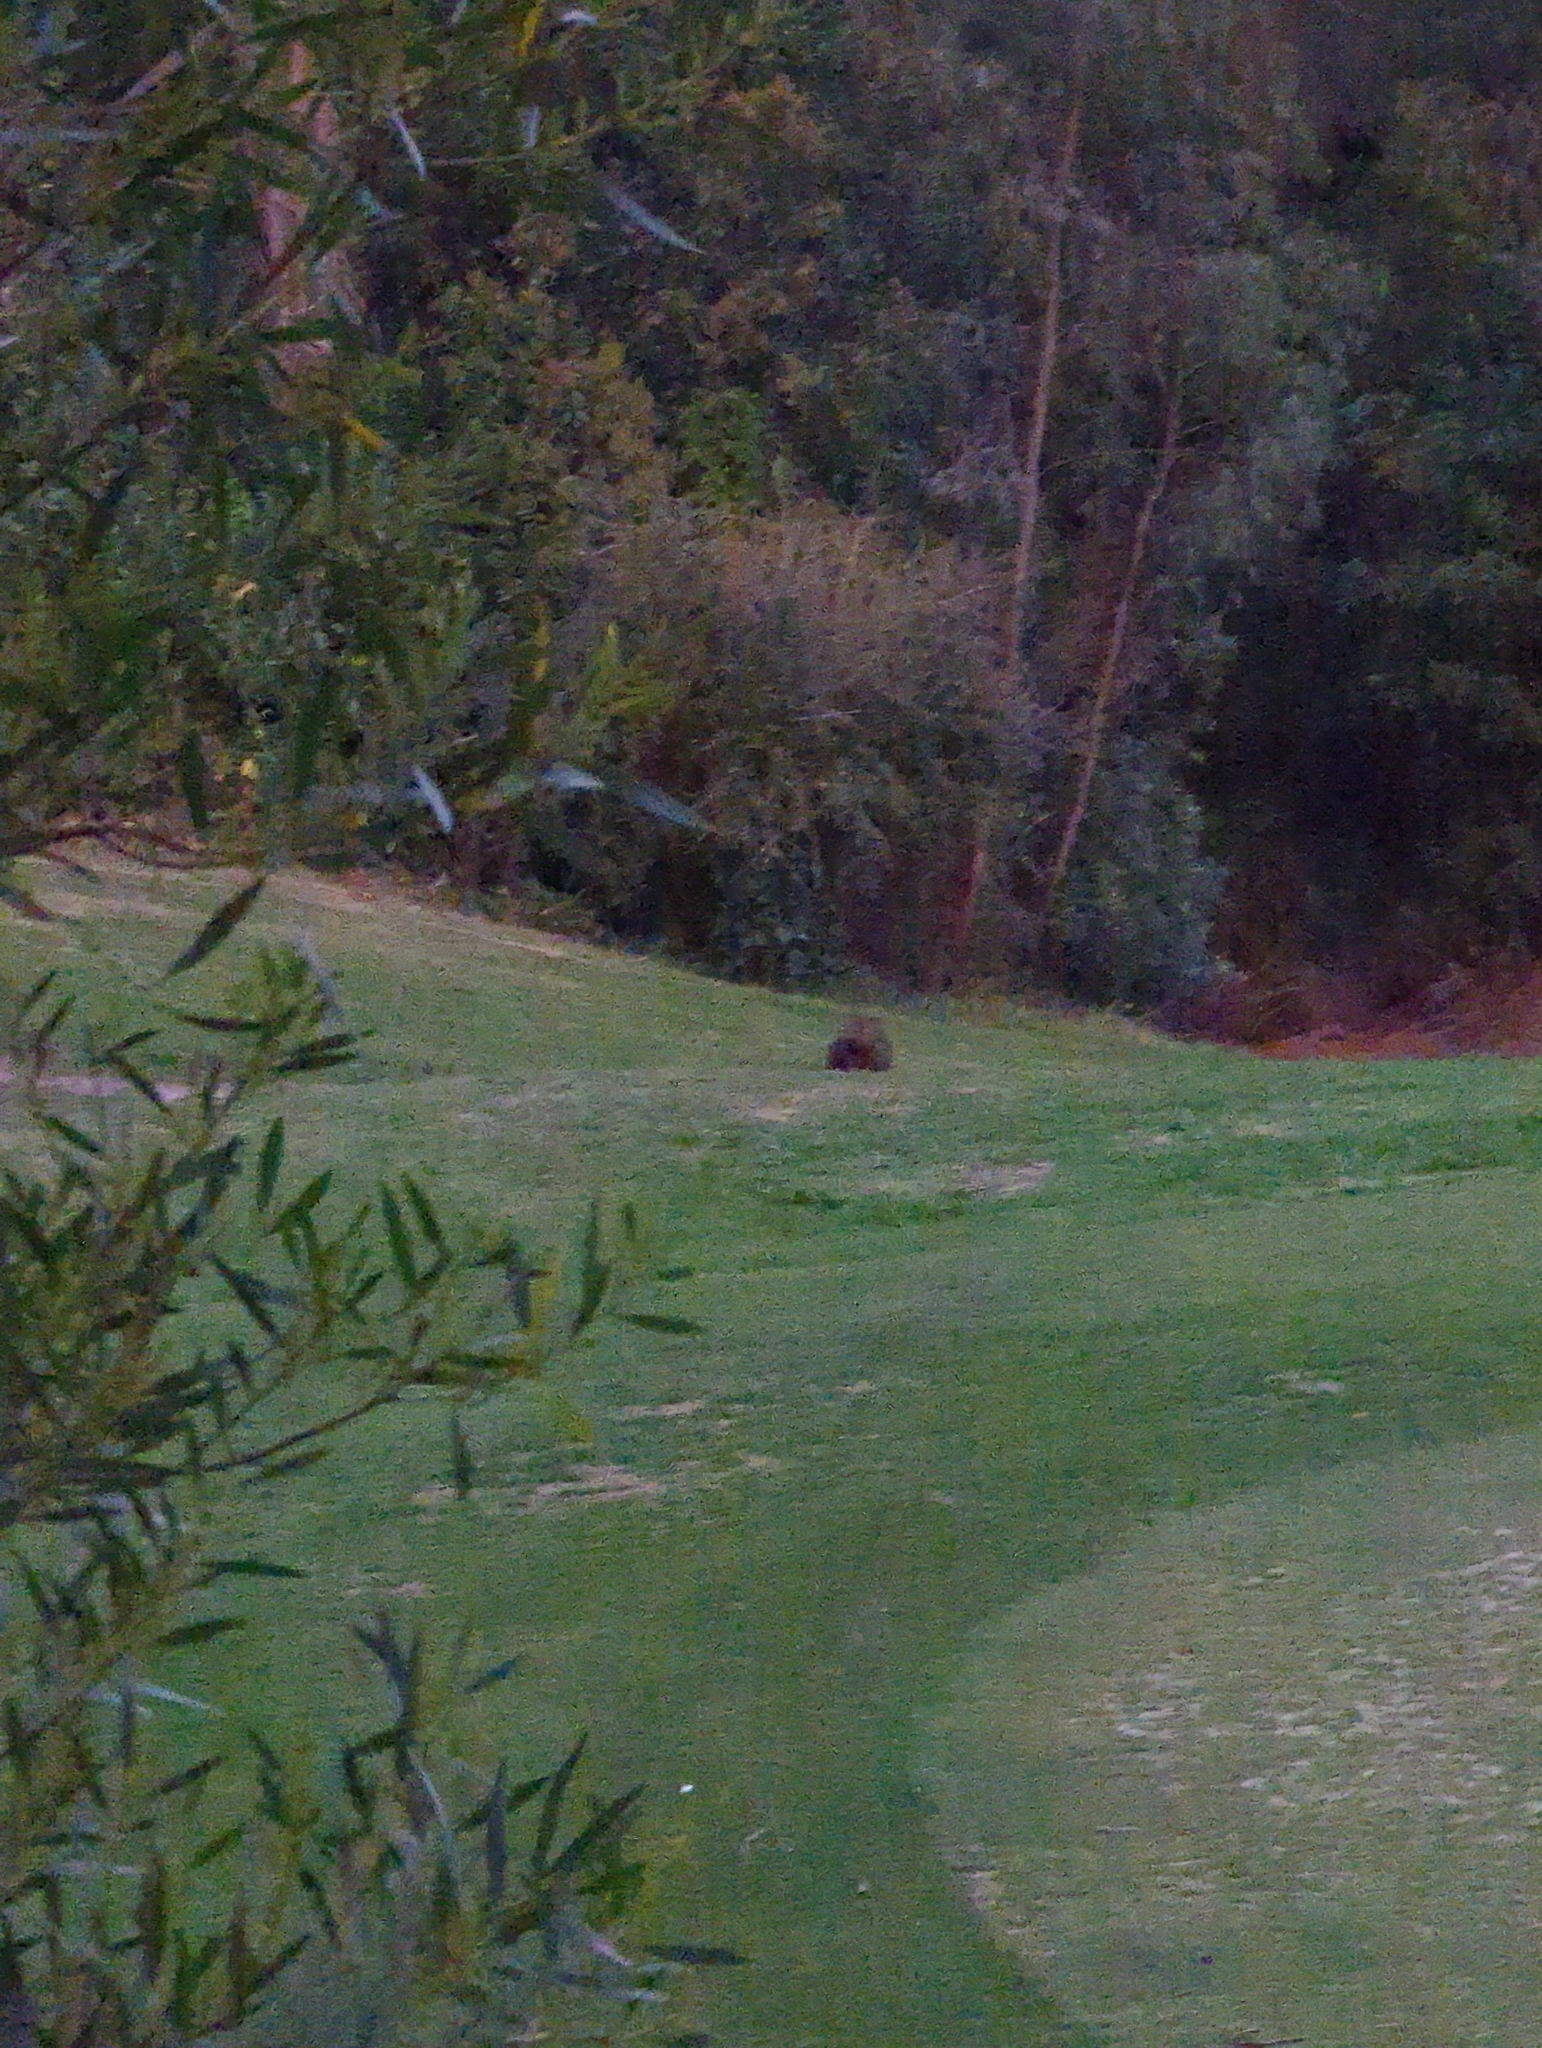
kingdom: Animalia
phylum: Chordata
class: Mammalia
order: Diprotodontia
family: Vombatidae
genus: Vombatus
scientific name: Vombatus ursinus
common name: Common wombat
